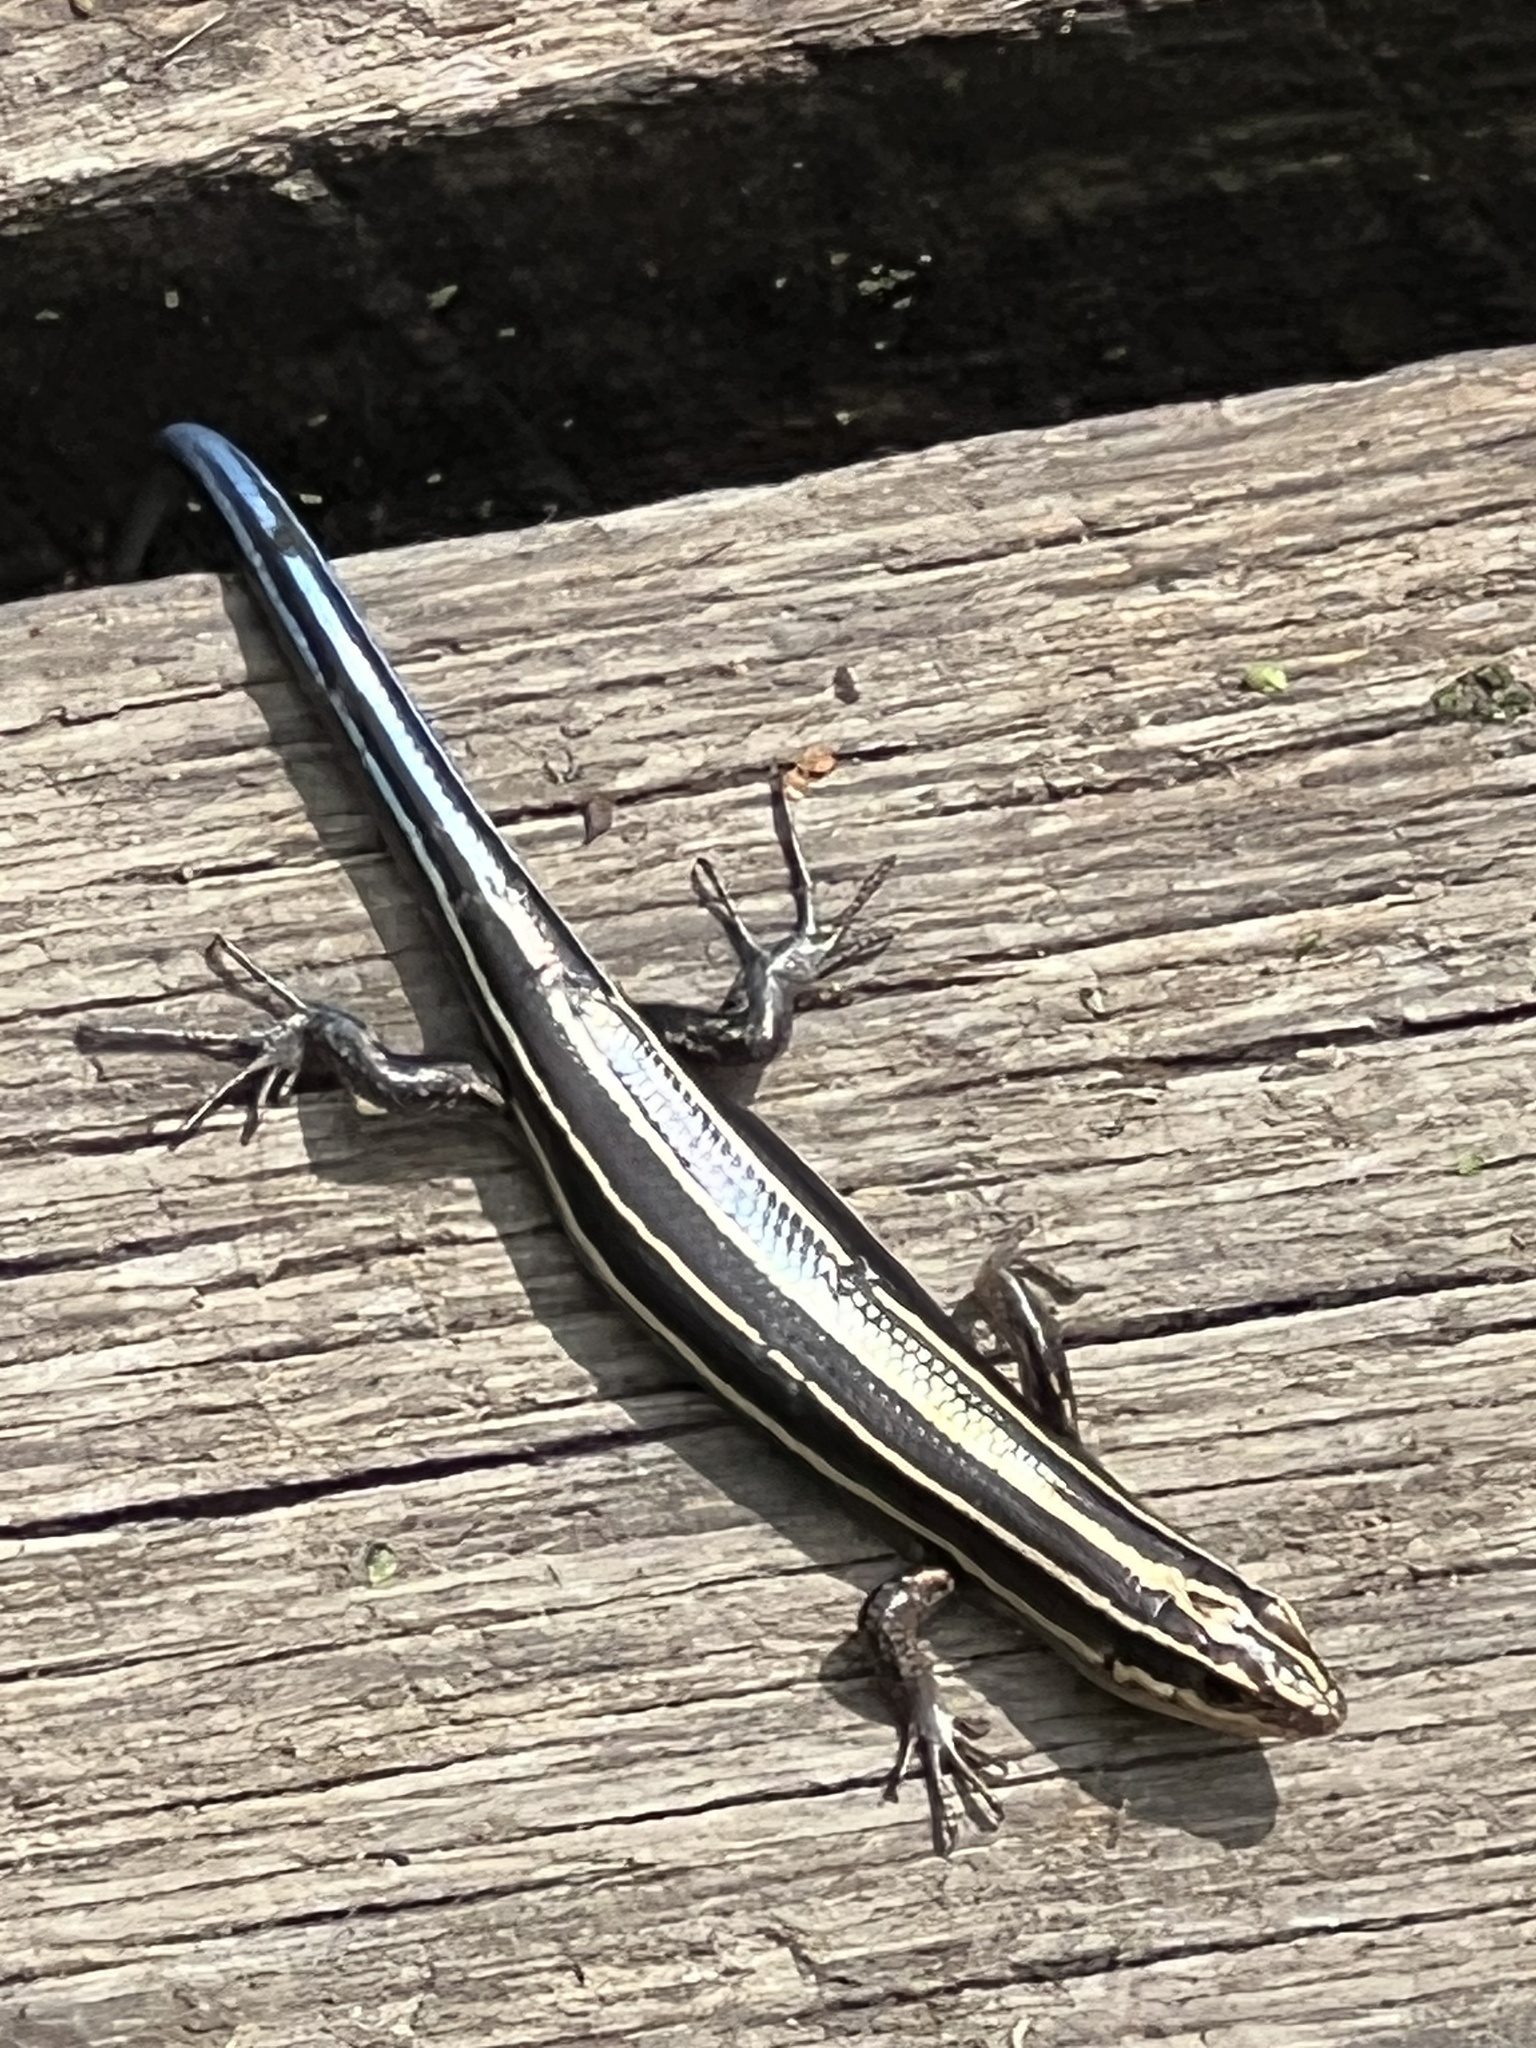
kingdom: Animalia
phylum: Chordata
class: Squamata
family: Scincidae
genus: Plestiodon
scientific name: Plestiodon fasciatus
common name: Five-lined skink
